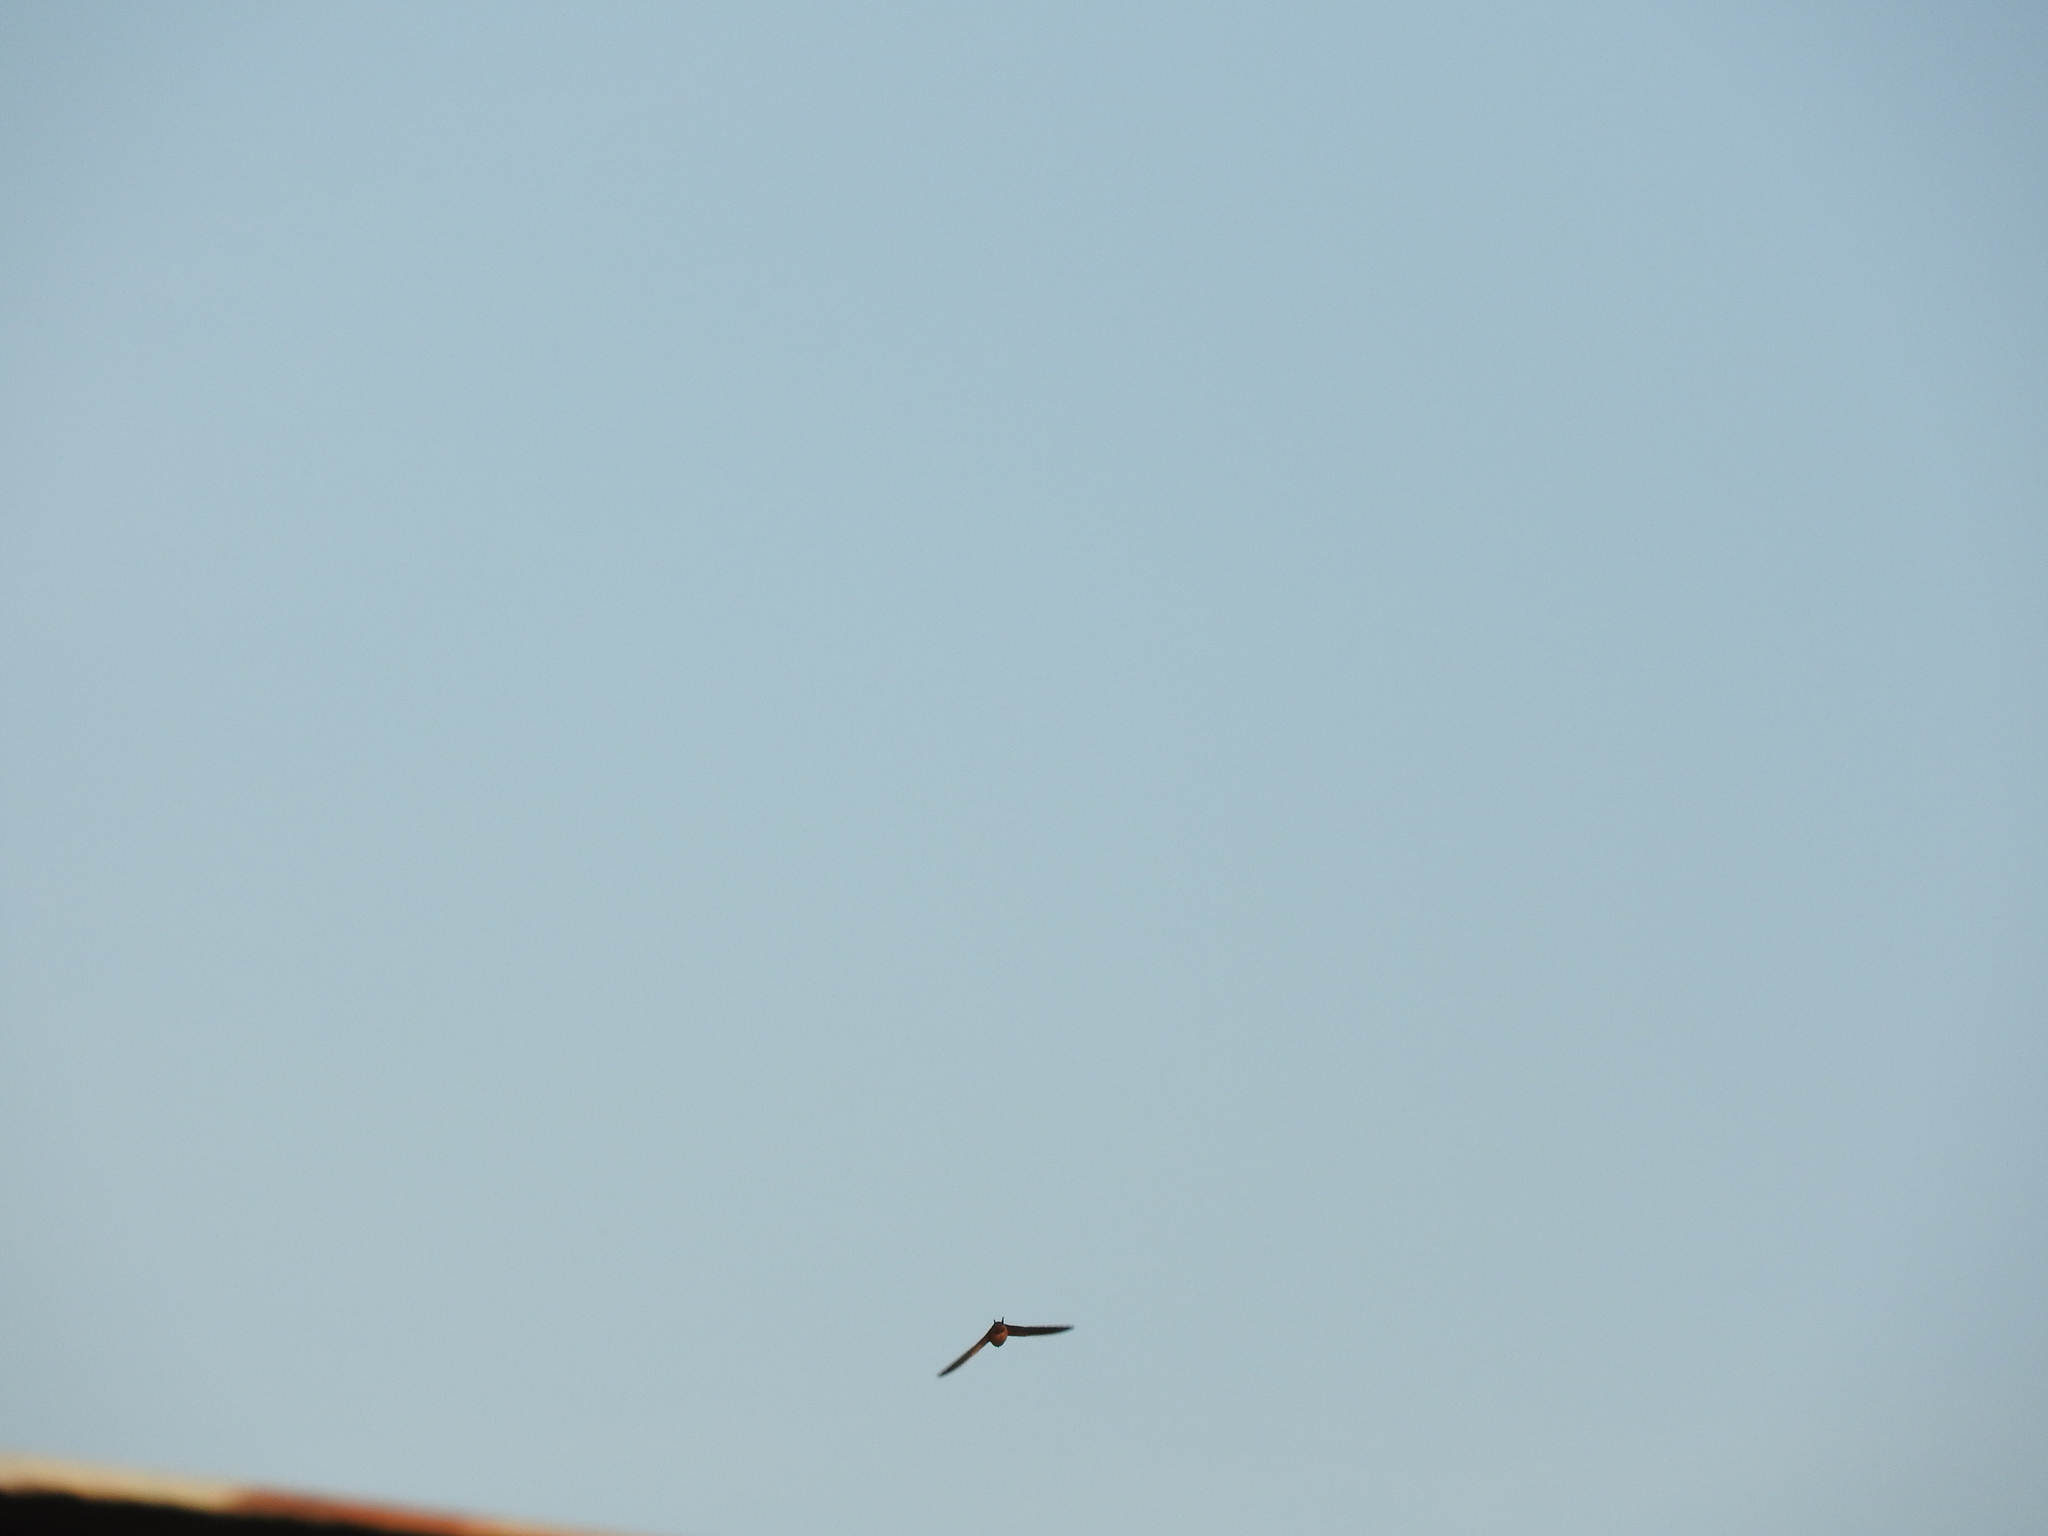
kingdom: Animalia
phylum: Chordata
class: Aves
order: Passeriformes
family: Hirundinidae
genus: Hirundo
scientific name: Hirundo rustica
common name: Barn swallow
